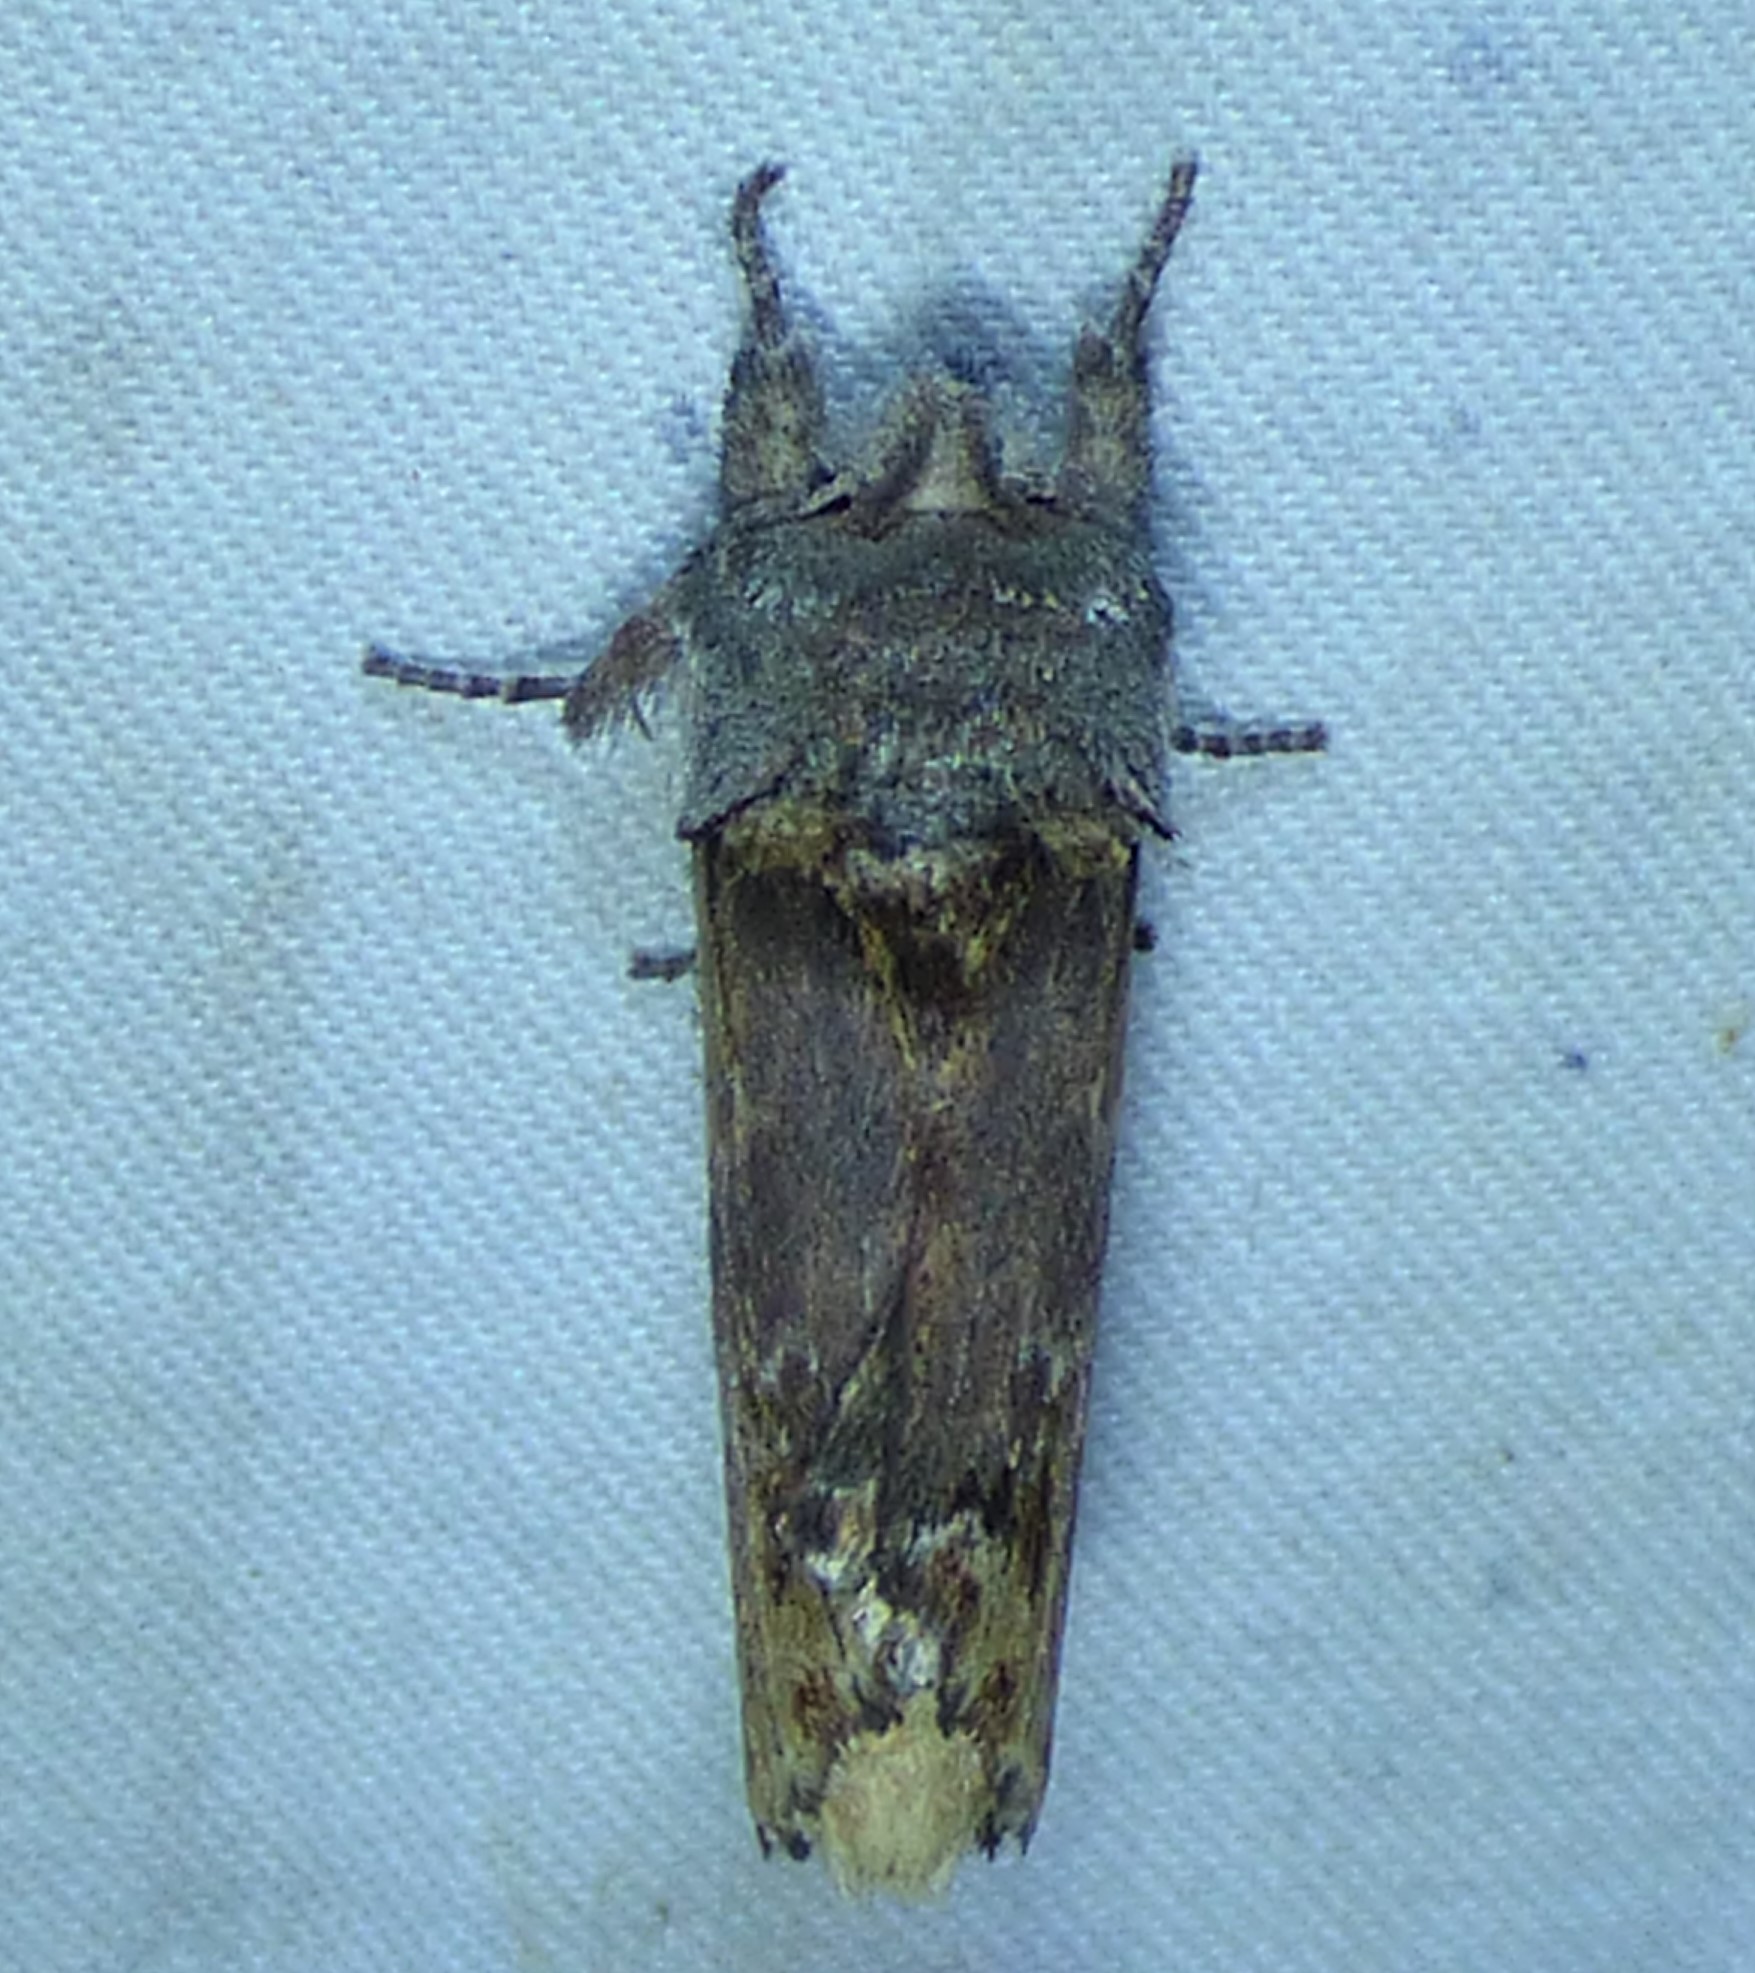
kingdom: Animalia
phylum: Arthropoda
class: Insecta
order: Lepidoptera
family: Notodontidae
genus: Schizura
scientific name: Schizura
